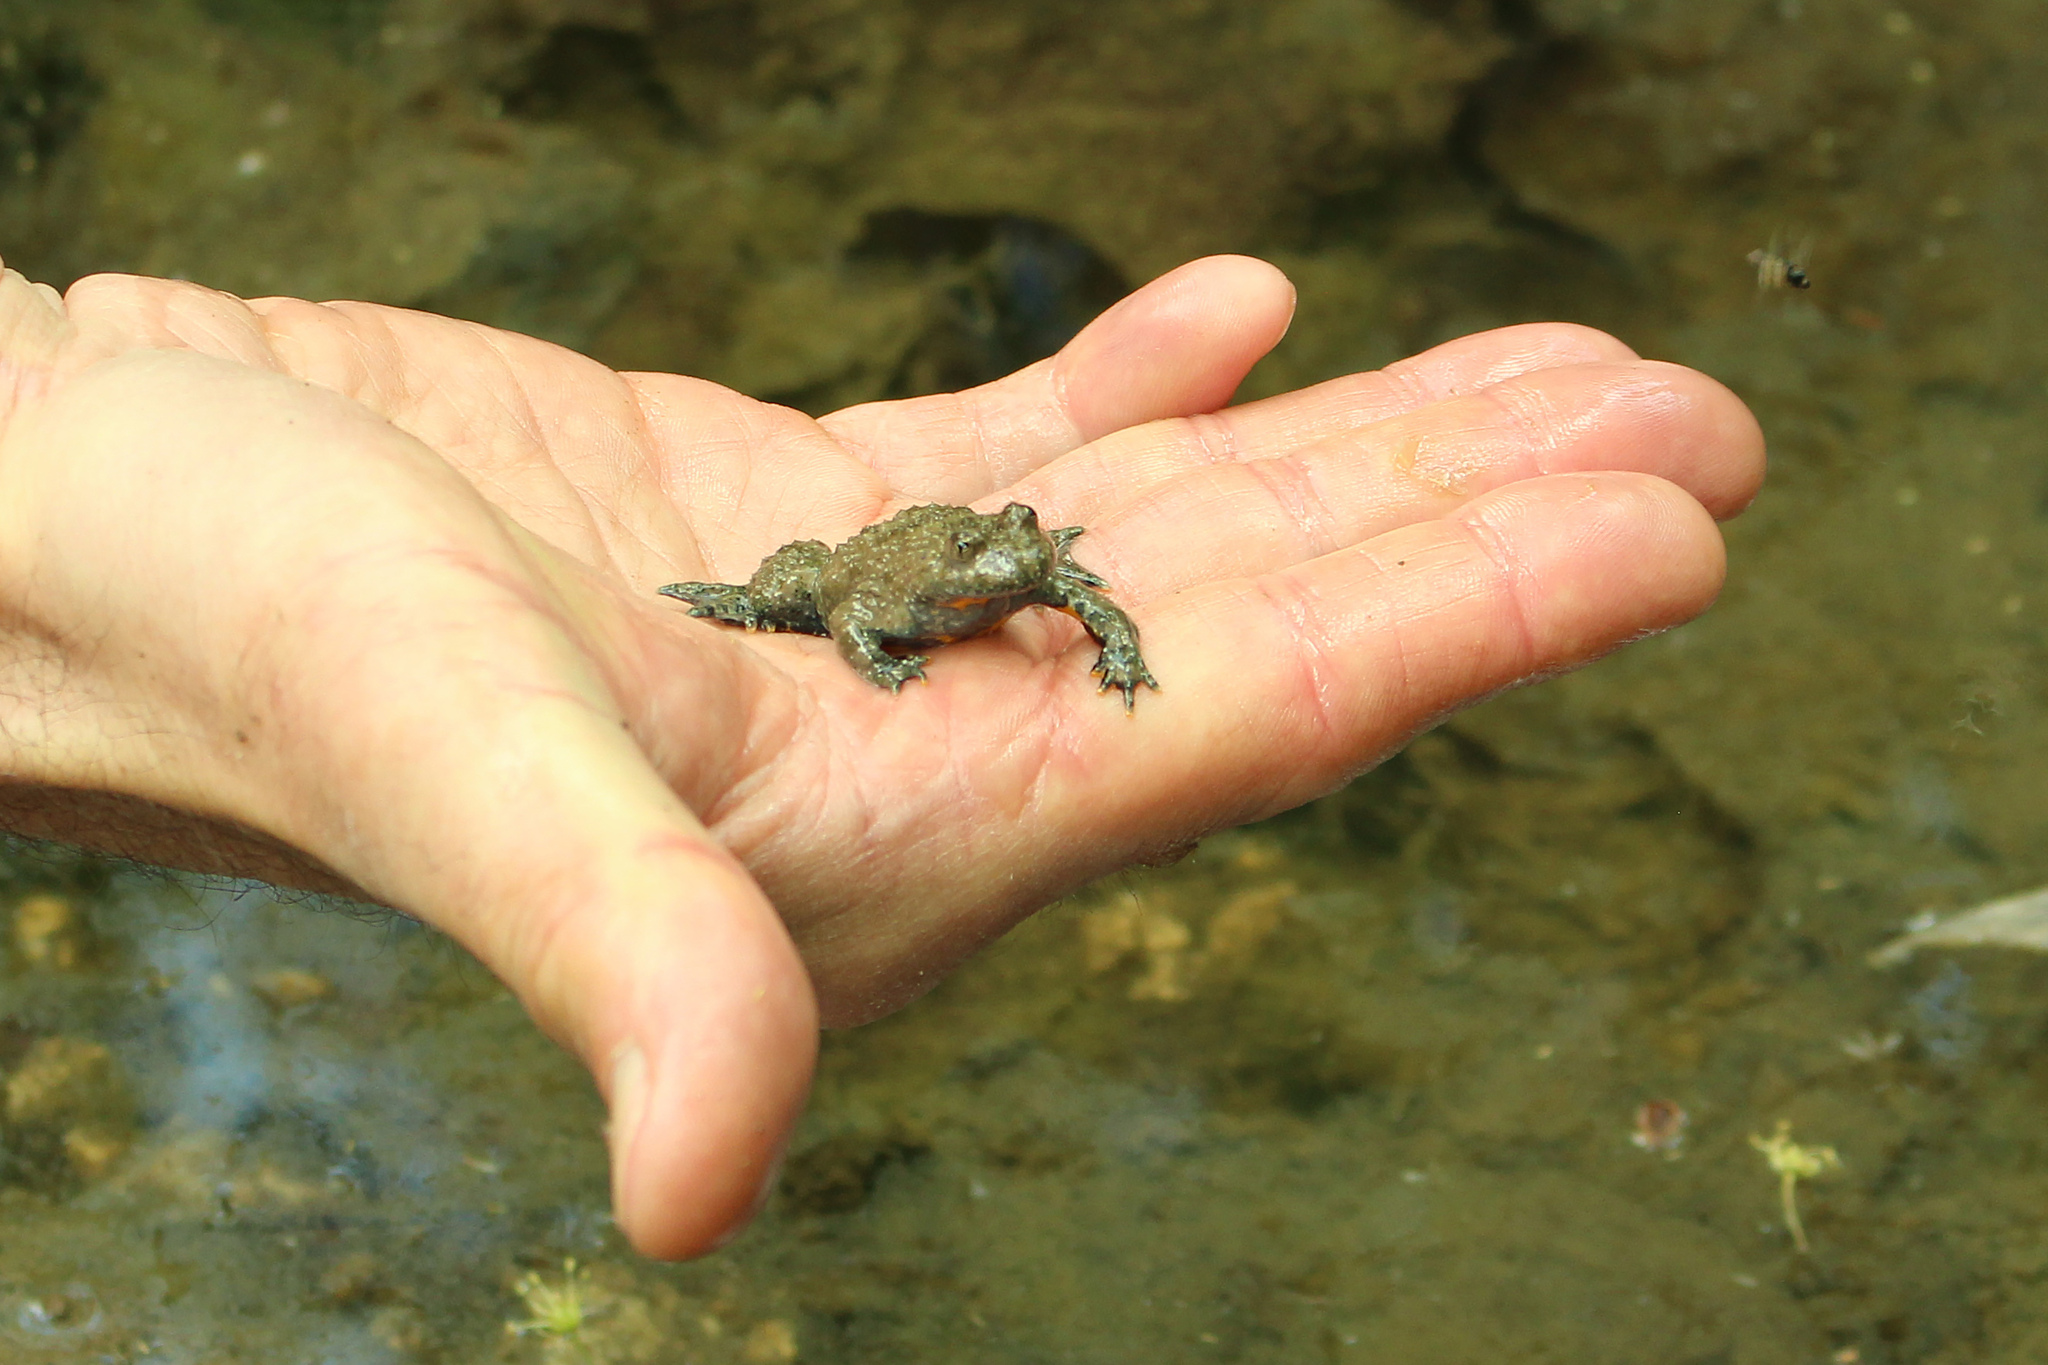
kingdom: Animalia
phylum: Chordata
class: Amphibia
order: Anura
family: Bombinatoridae
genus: Bombina
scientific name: Bombina variegata
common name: Yellow-bellied toad
